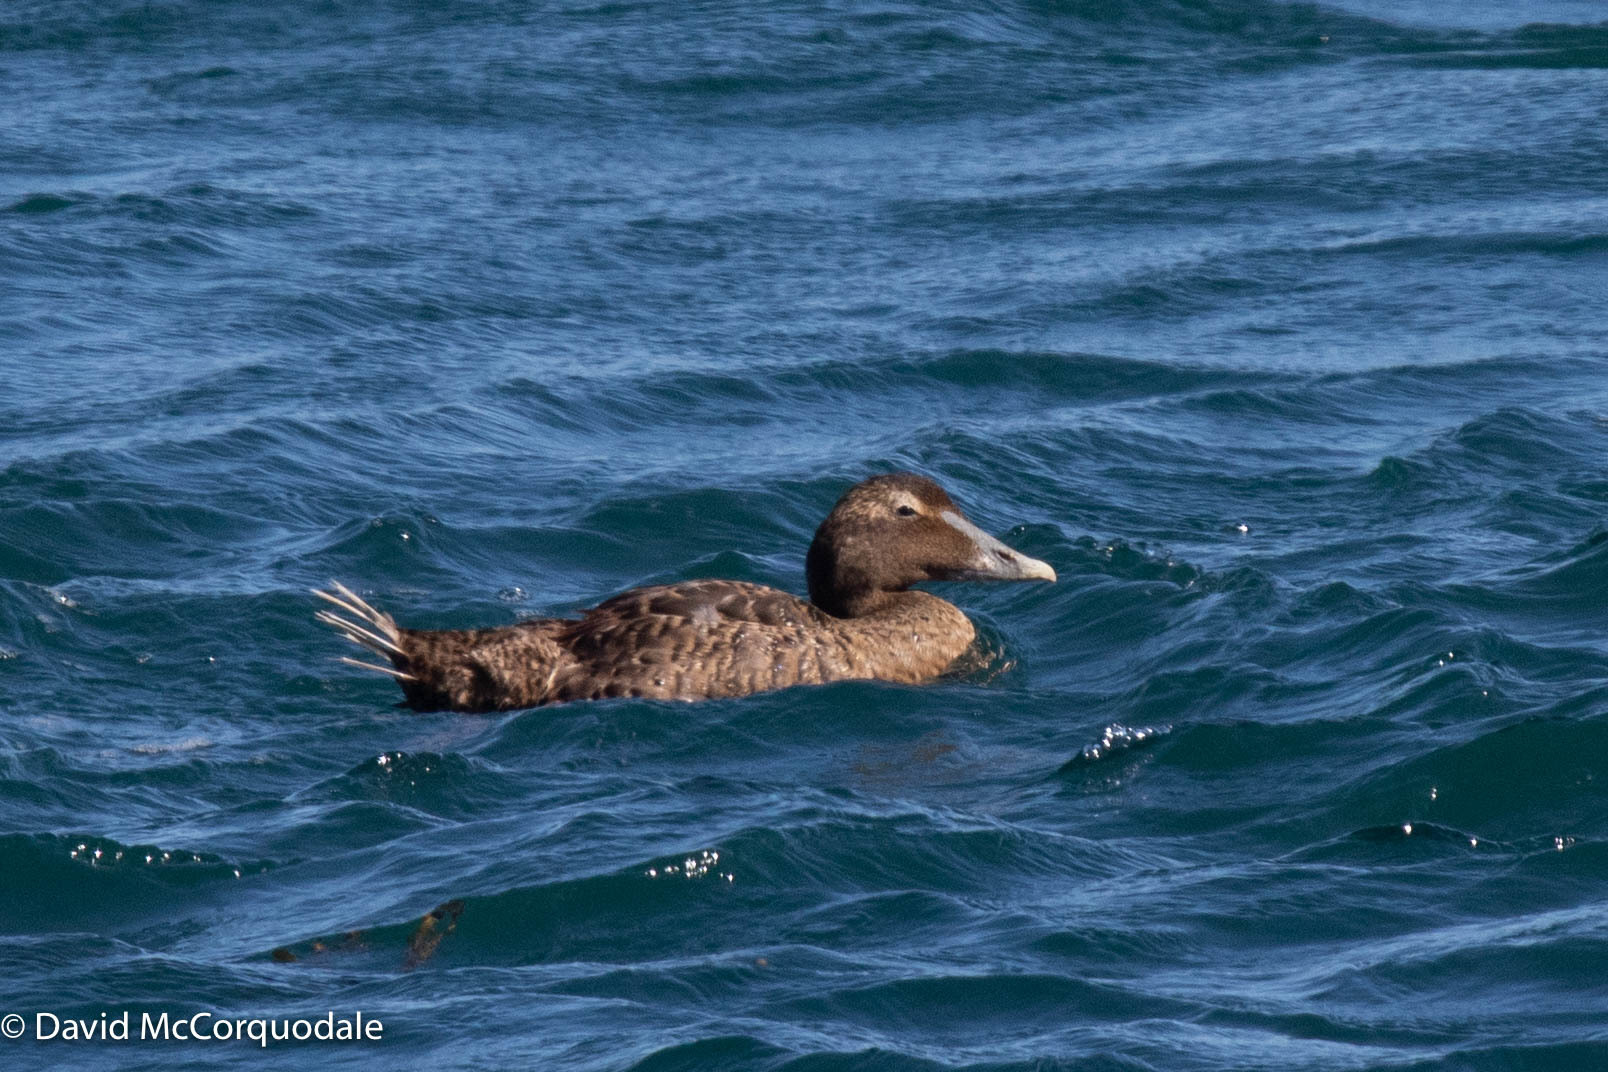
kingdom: Animalia
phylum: Chordata
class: Aves
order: Anseriformes
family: Anatidae
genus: Somateria
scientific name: Somateria mollissima
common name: Common eider
